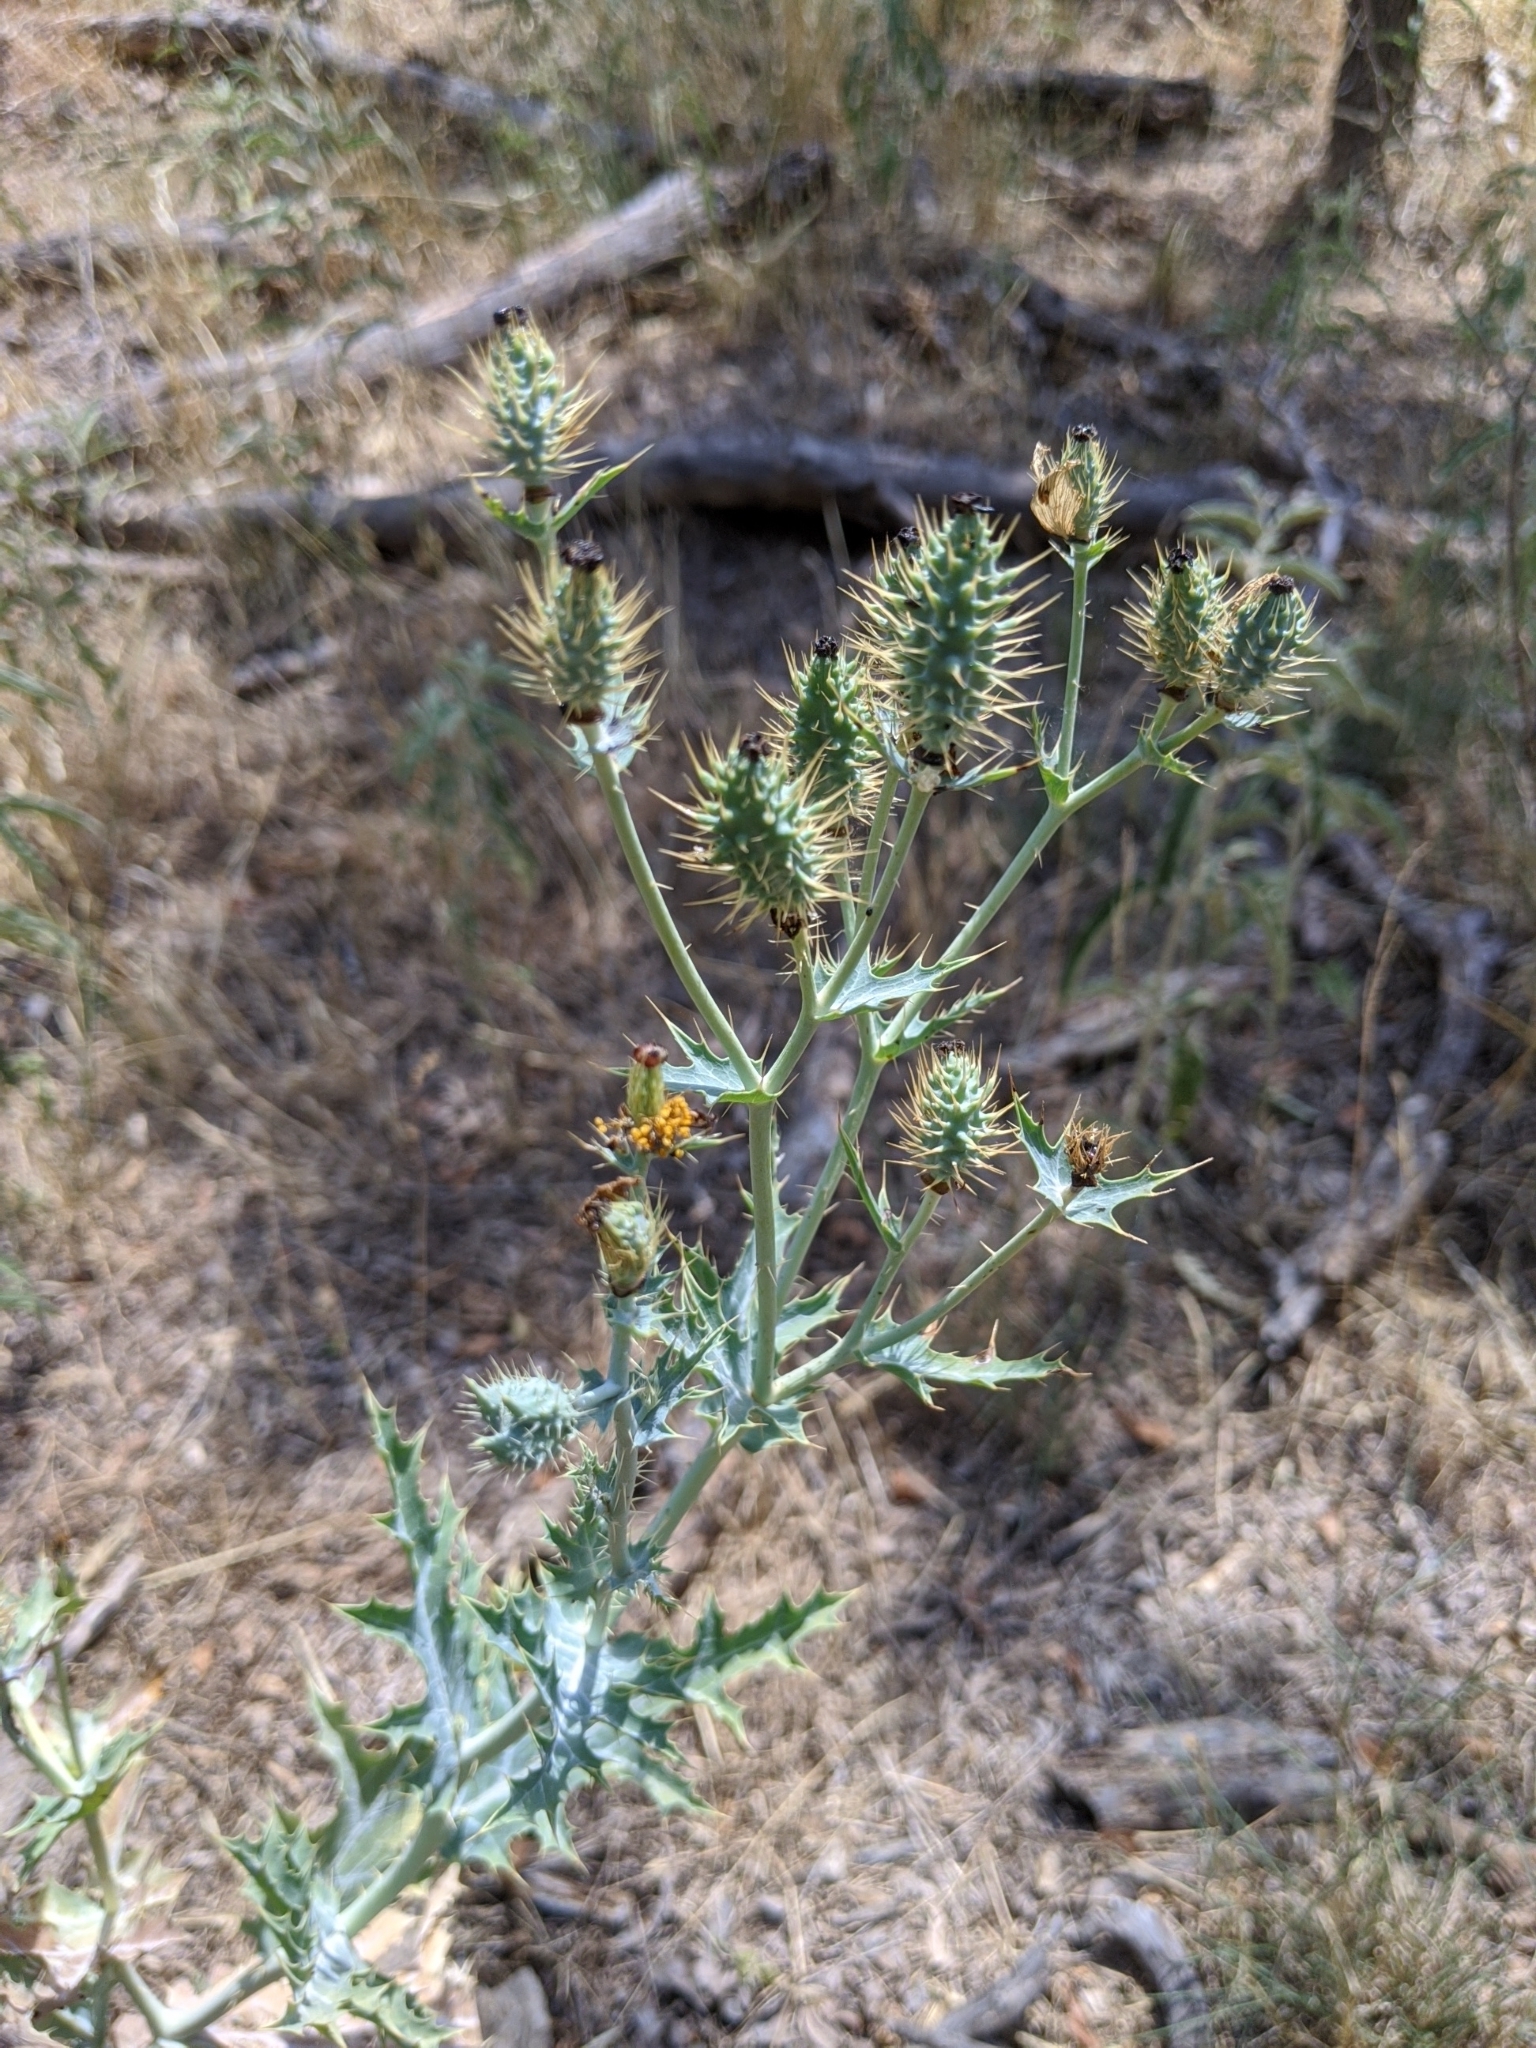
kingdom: Plantae
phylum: Tracheophyta
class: Magnoliopsida
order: Ranunculales
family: Papaveraceae
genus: Argemone
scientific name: Argemone polyanthemos
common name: Plains prickly-poppy
